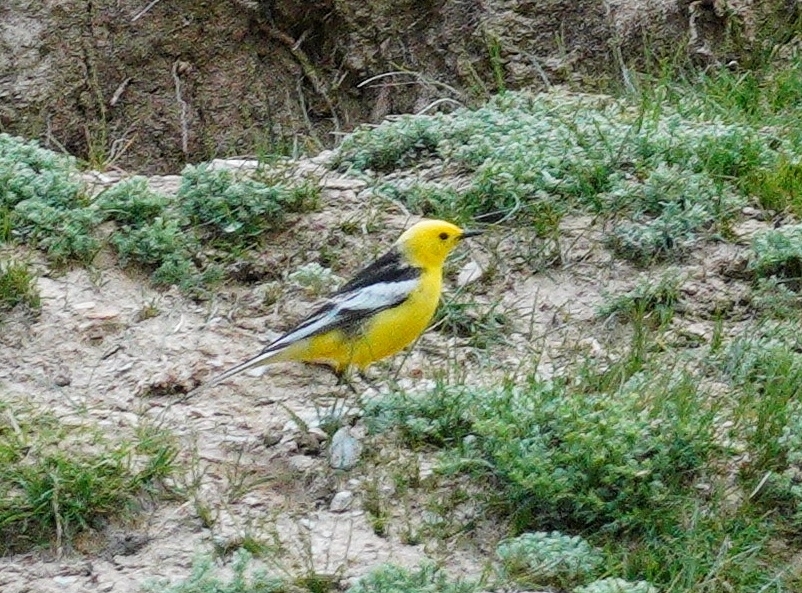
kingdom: Animalia
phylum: Chordata
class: Aves
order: Passeriformes
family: Motacillidae
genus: Motacilla
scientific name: Motacilla citreola
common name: Citrine wagtail
